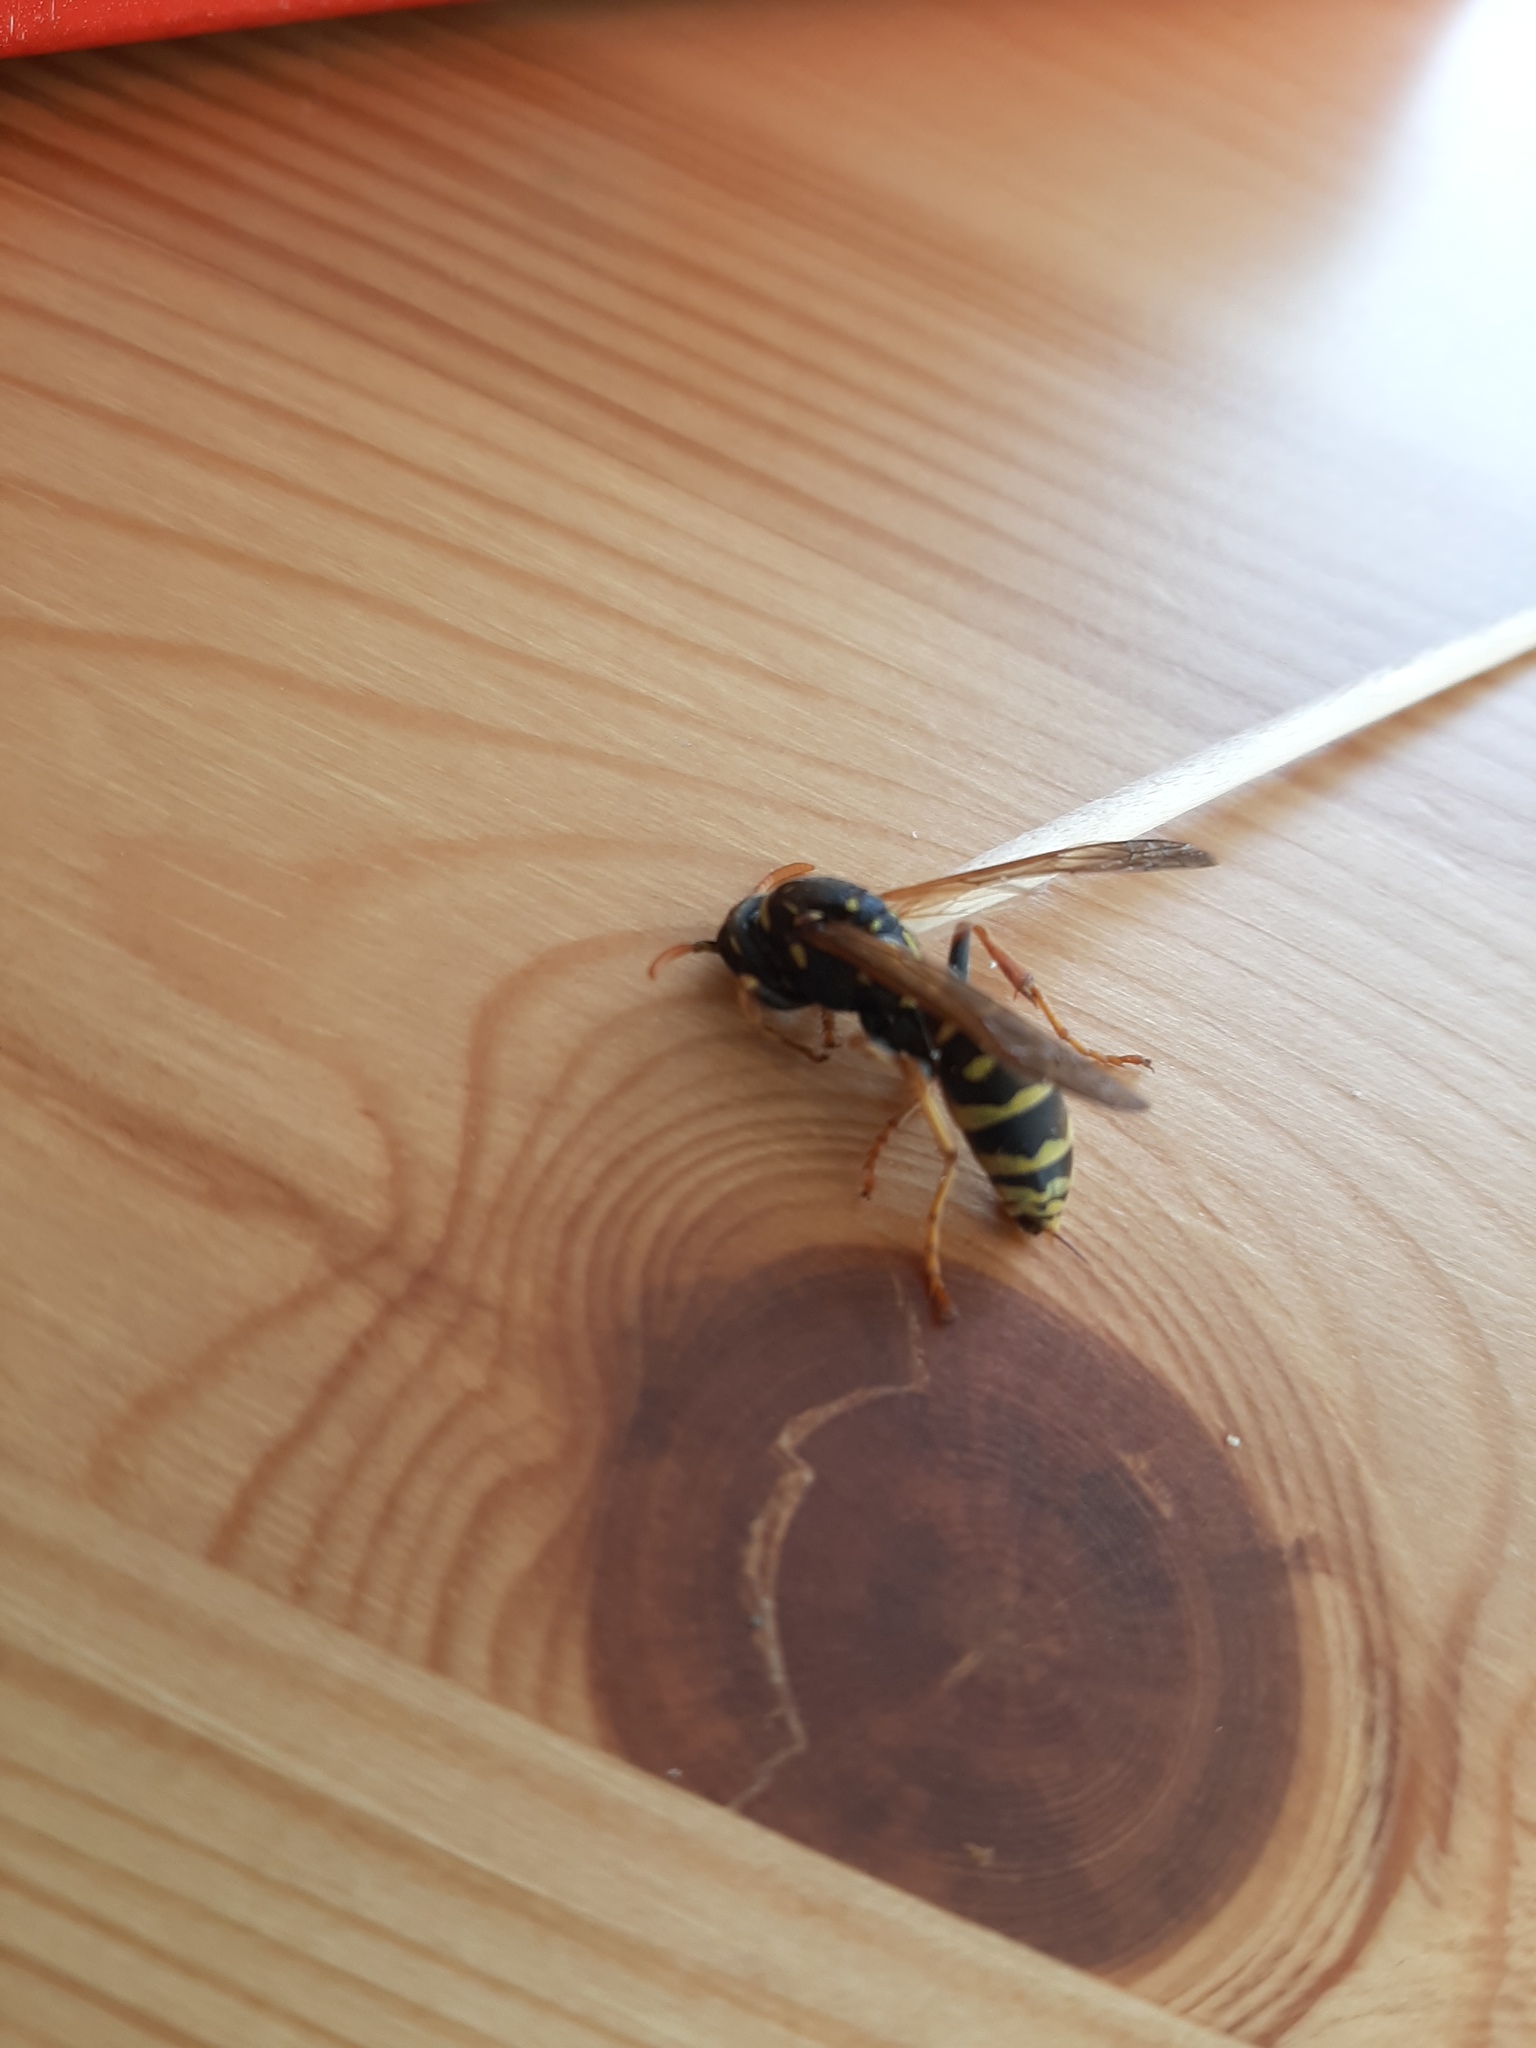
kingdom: Animalia
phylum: Arthropoda
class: Insecta
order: Hymenoptera
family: Eumenidae
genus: Polistes
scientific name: Polistes dominula
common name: Paper wasp
